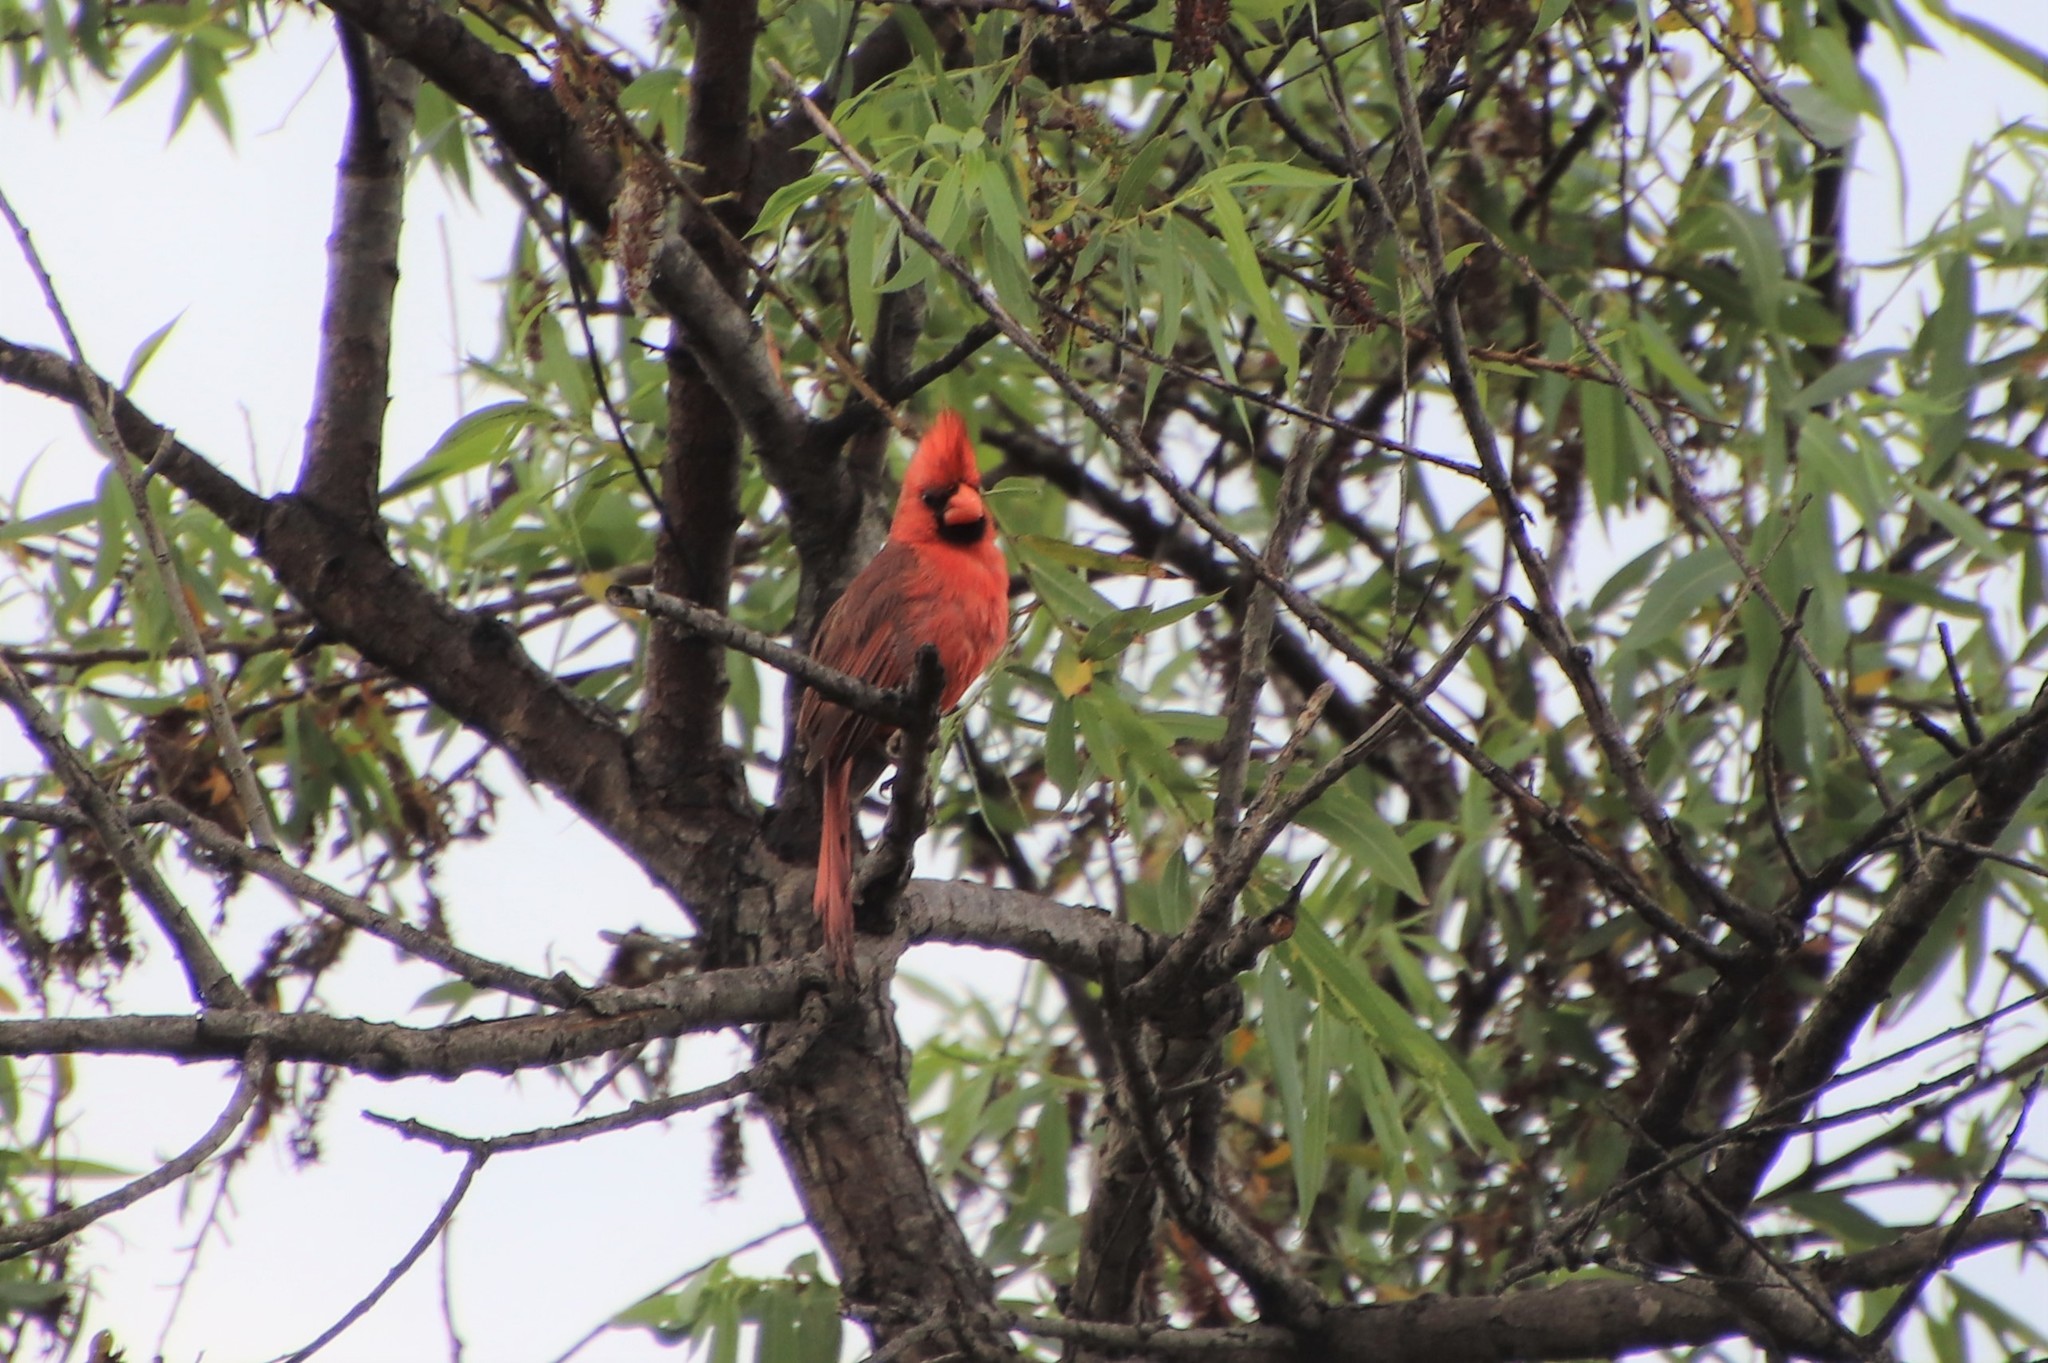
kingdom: Animalia
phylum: Chordata
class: Aves
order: Passeriformes
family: Cardinalidae
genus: Cardinalis
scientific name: Cardinalis cardinalis
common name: Northern cardinal
